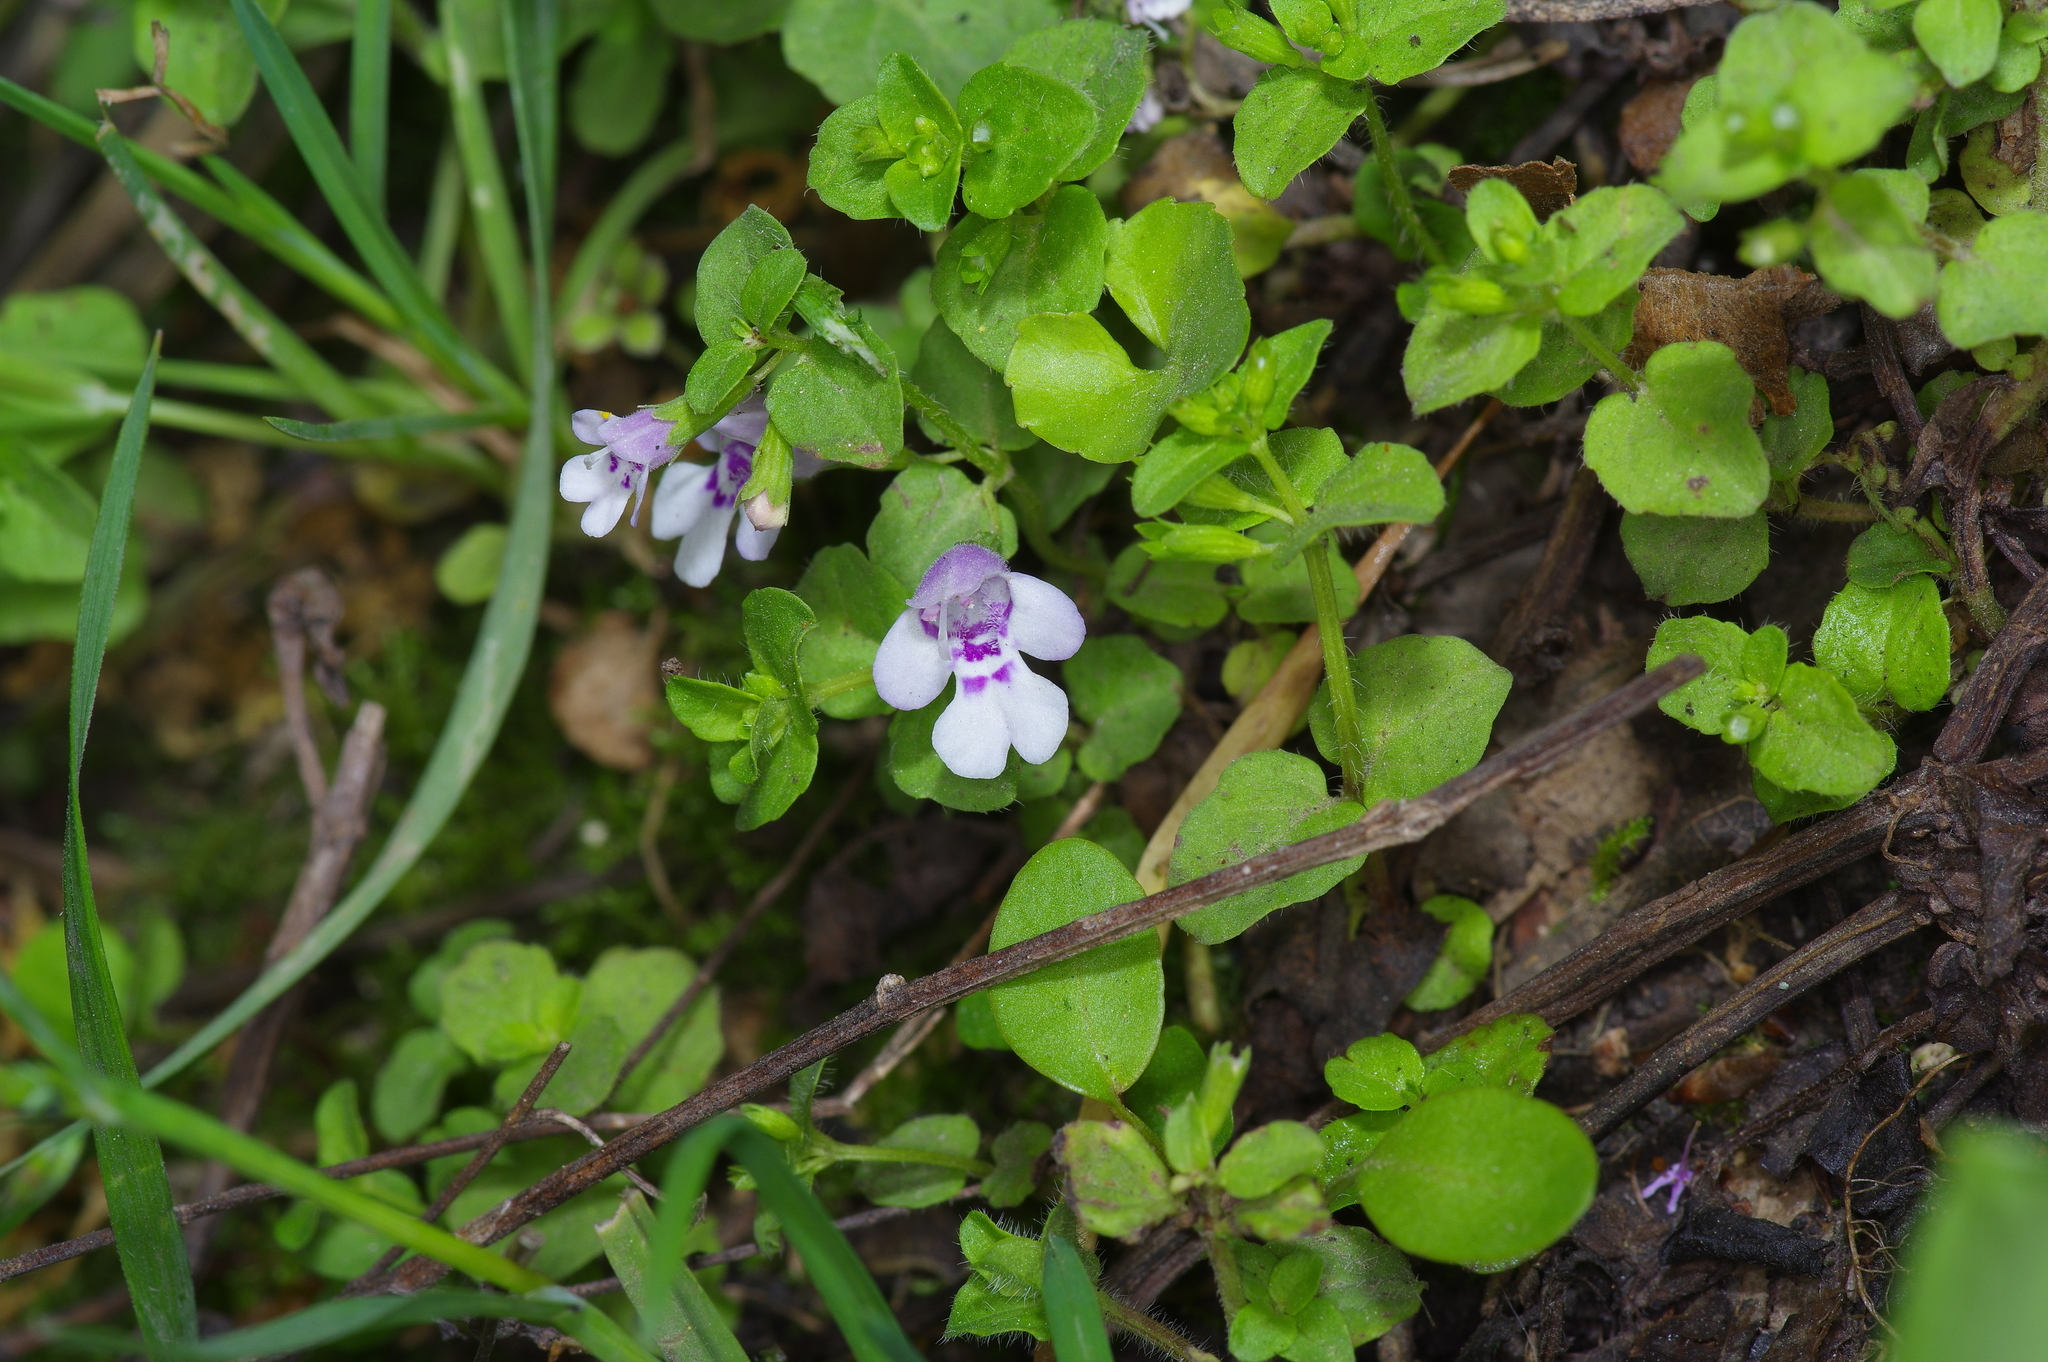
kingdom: Plantae
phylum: Tracheophyta
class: Magnoliopsida
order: Lamiales
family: Lamiaceae
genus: Clinopodium
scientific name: Clinopodium brownei
